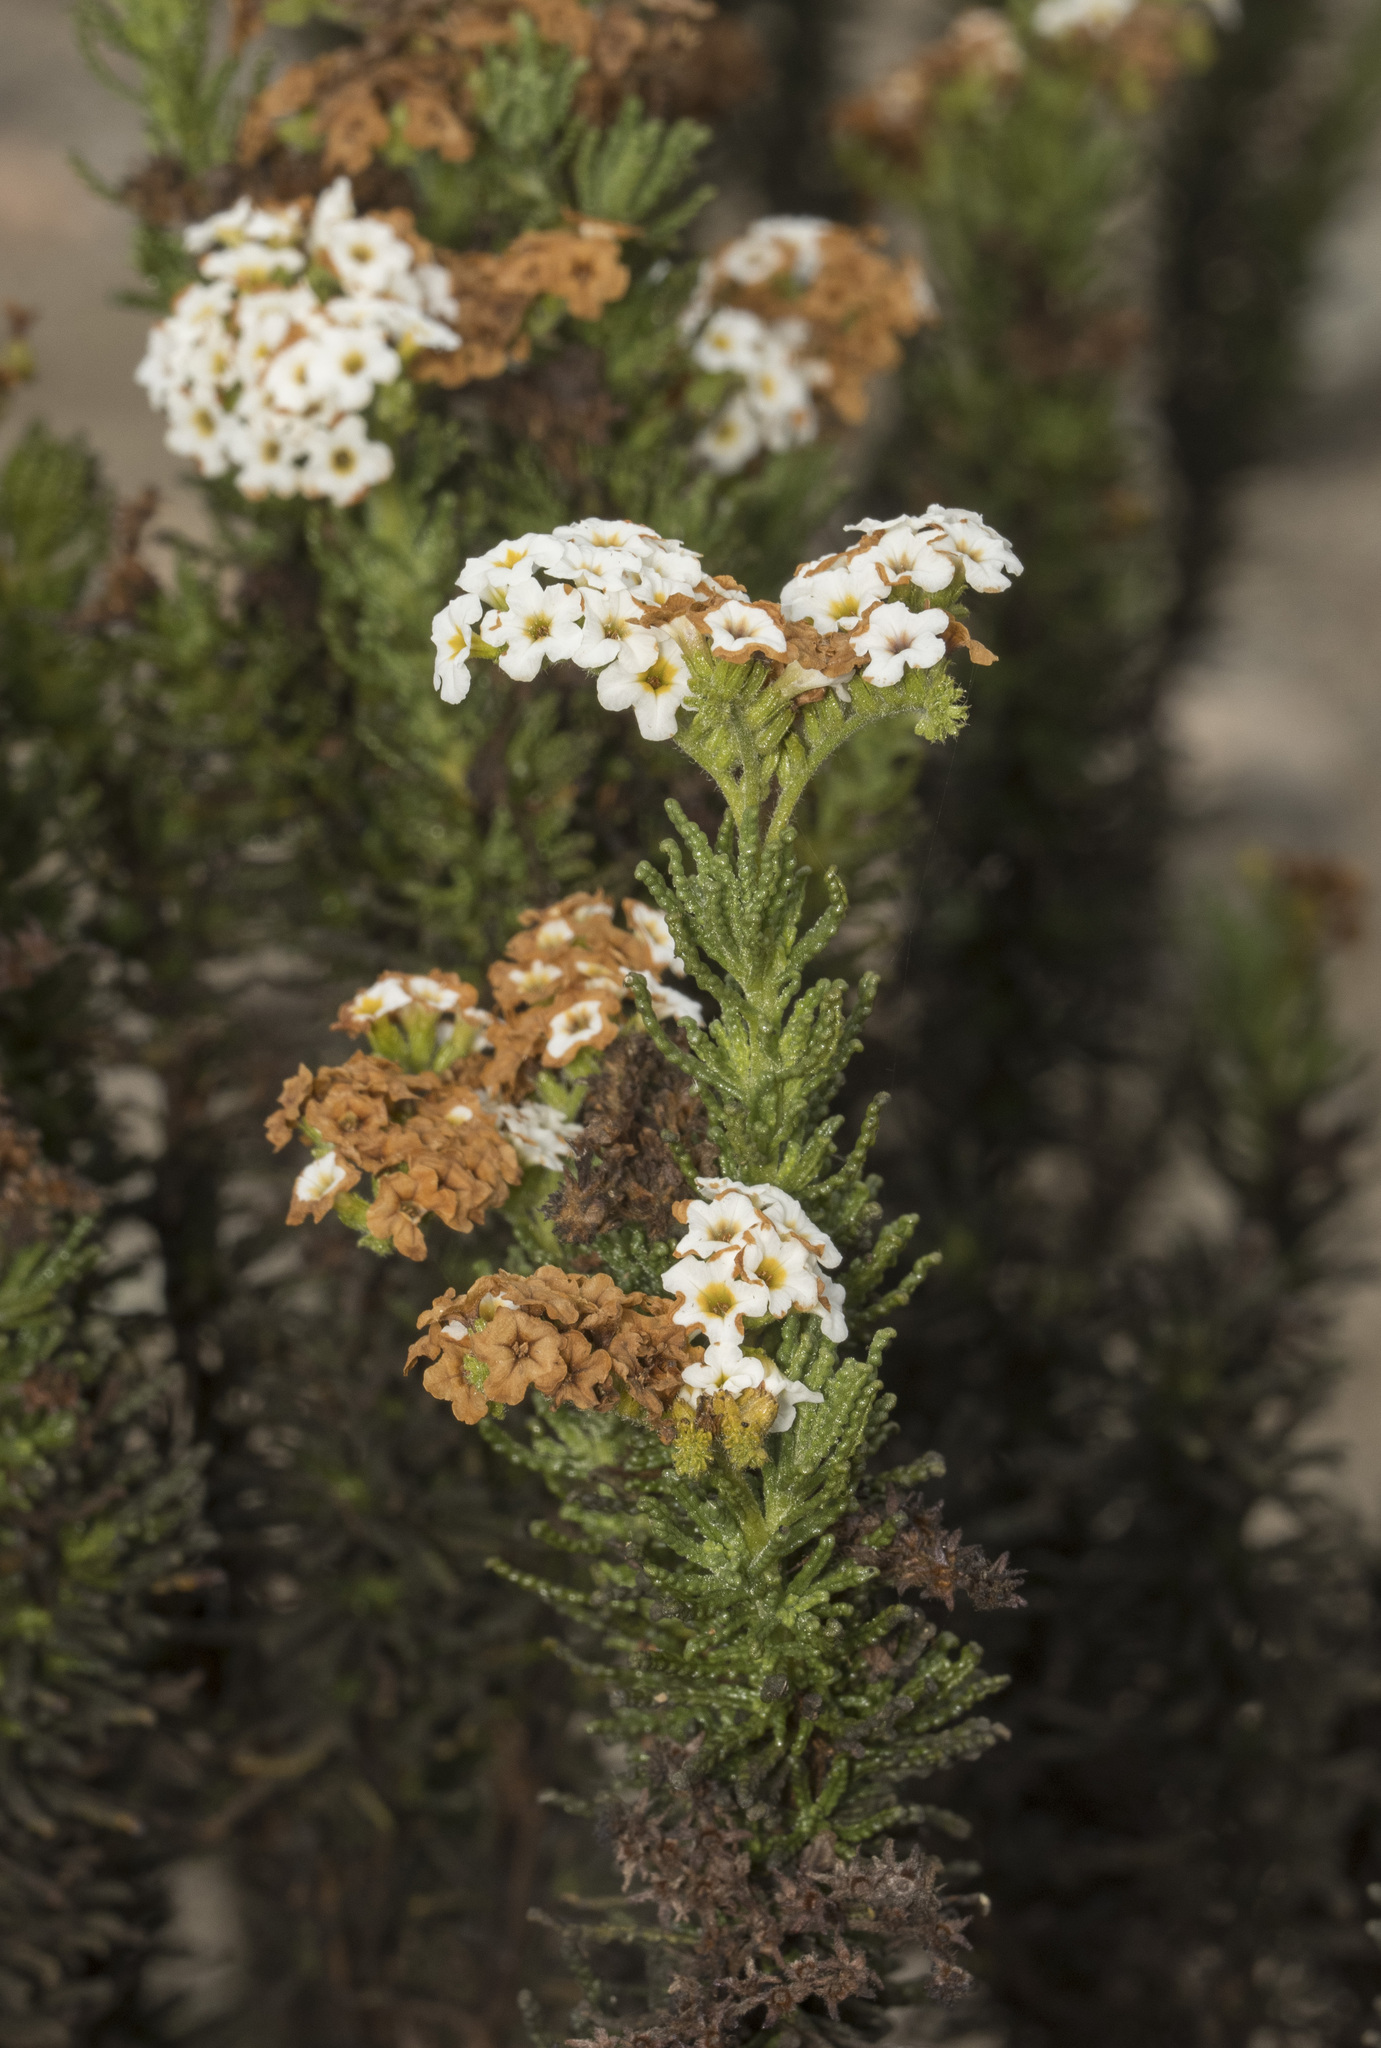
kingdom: Plantae
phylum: Tracheophyta
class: Magnoliopsida
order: Boraginales
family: Heliotropiaceae
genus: Heliotropium
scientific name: Heliotropium sinuatum
